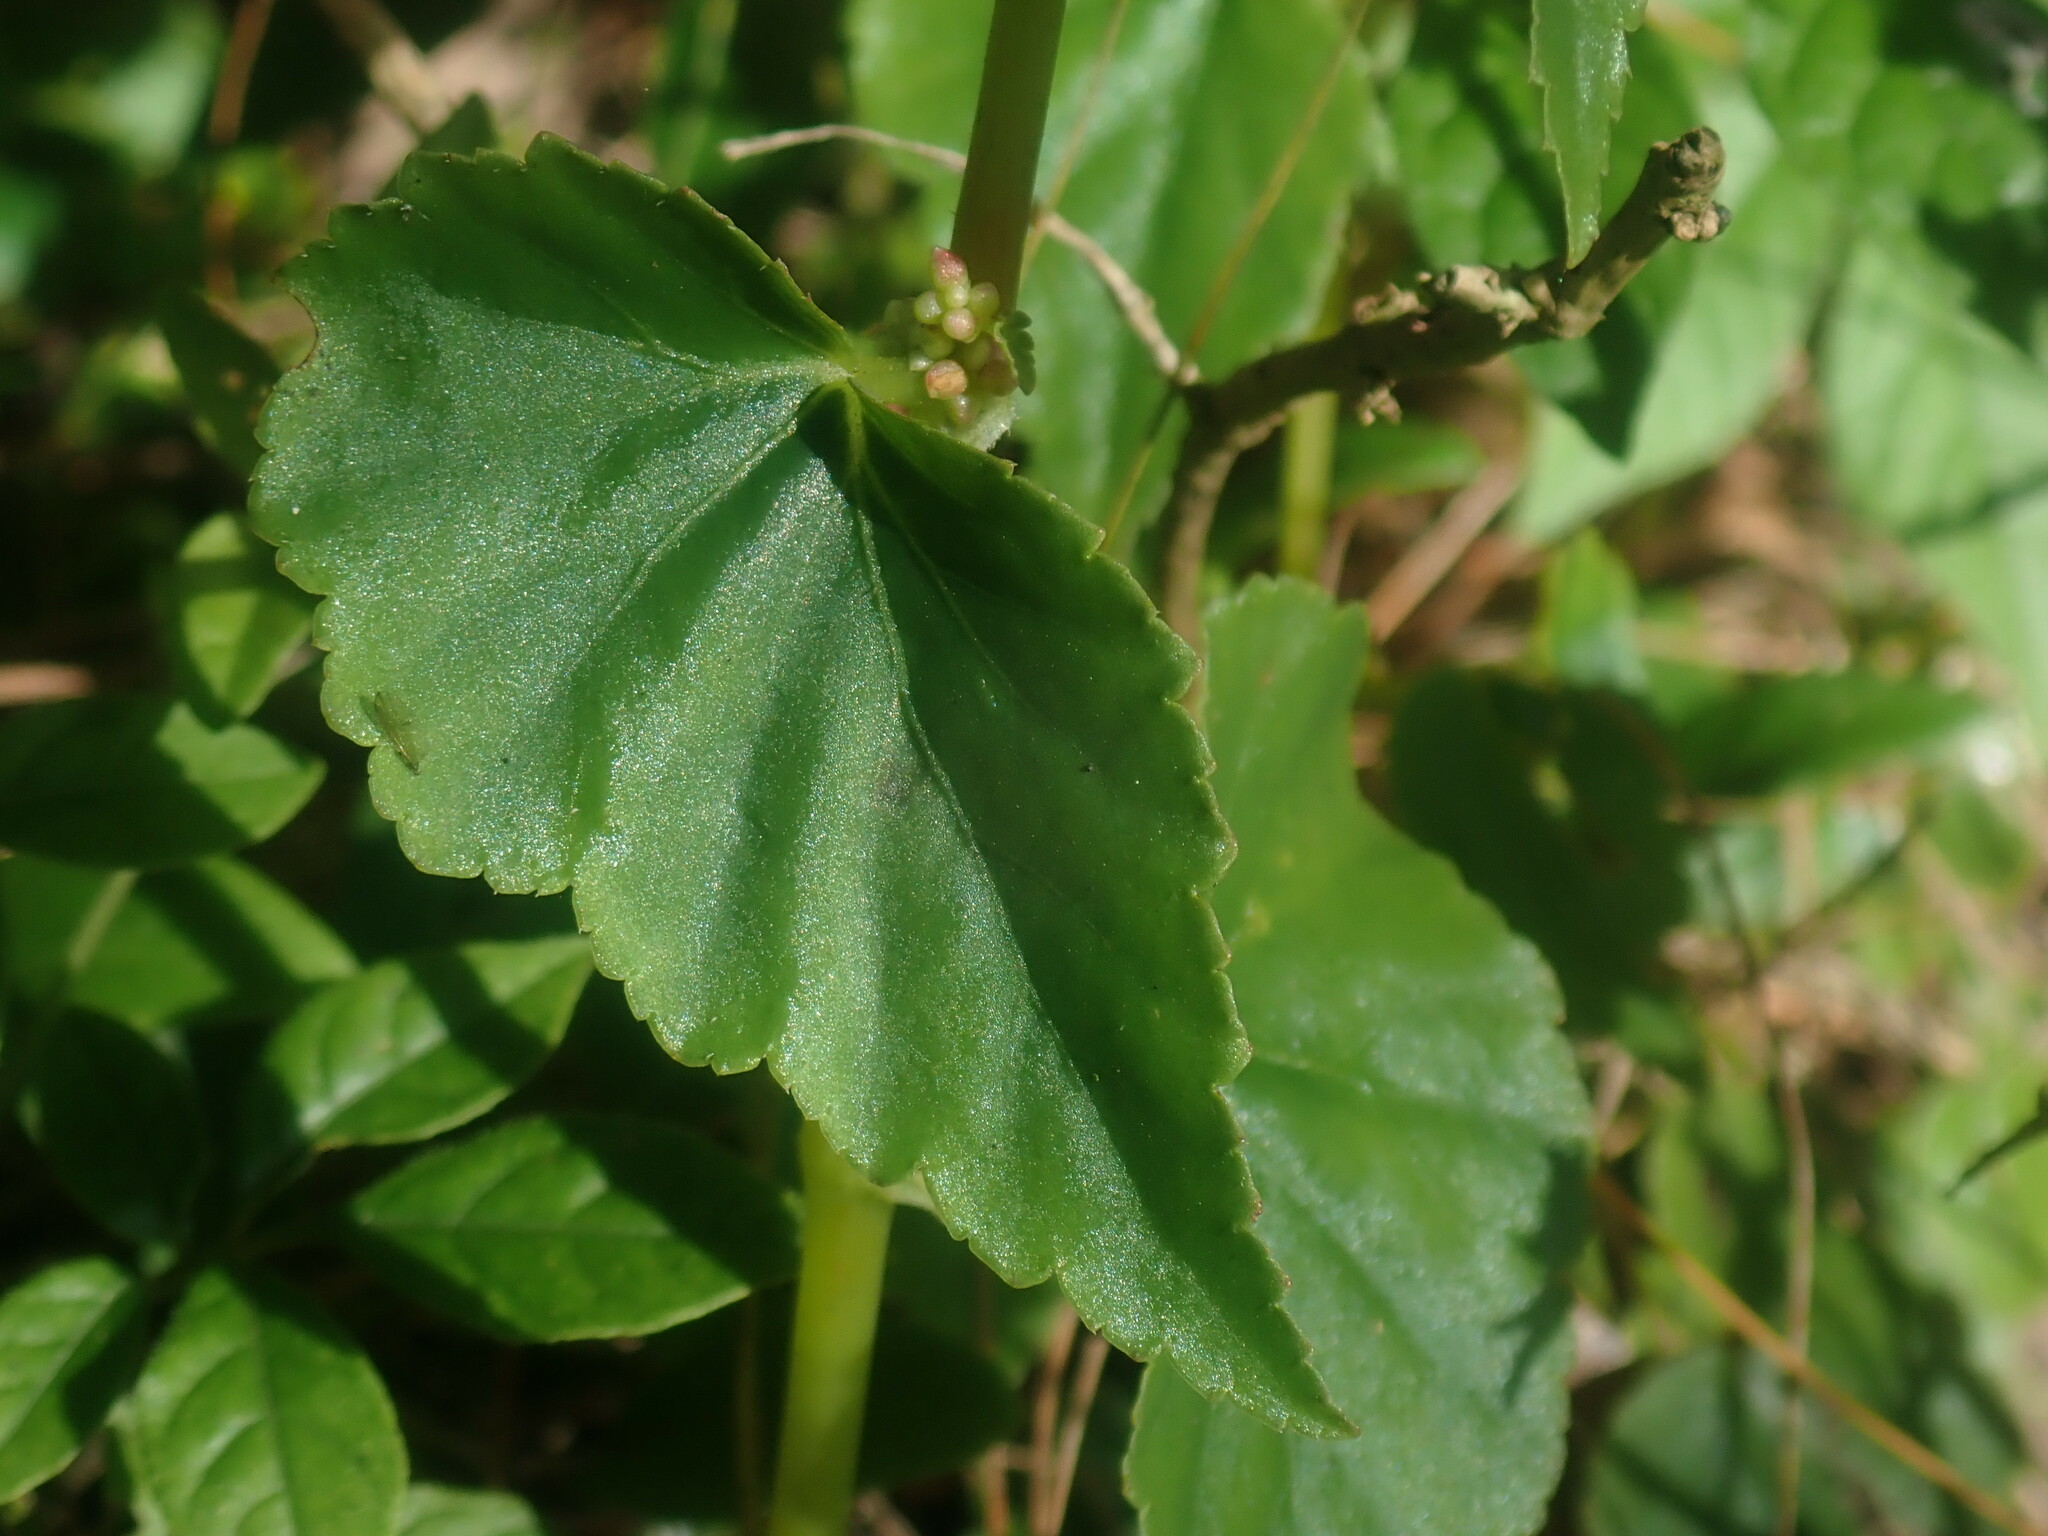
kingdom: Plantae
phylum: Tracheophyta
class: Magnoliopsida
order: Cucurbitales
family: Begoniaceae
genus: Begonia
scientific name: Begonia gracilis
